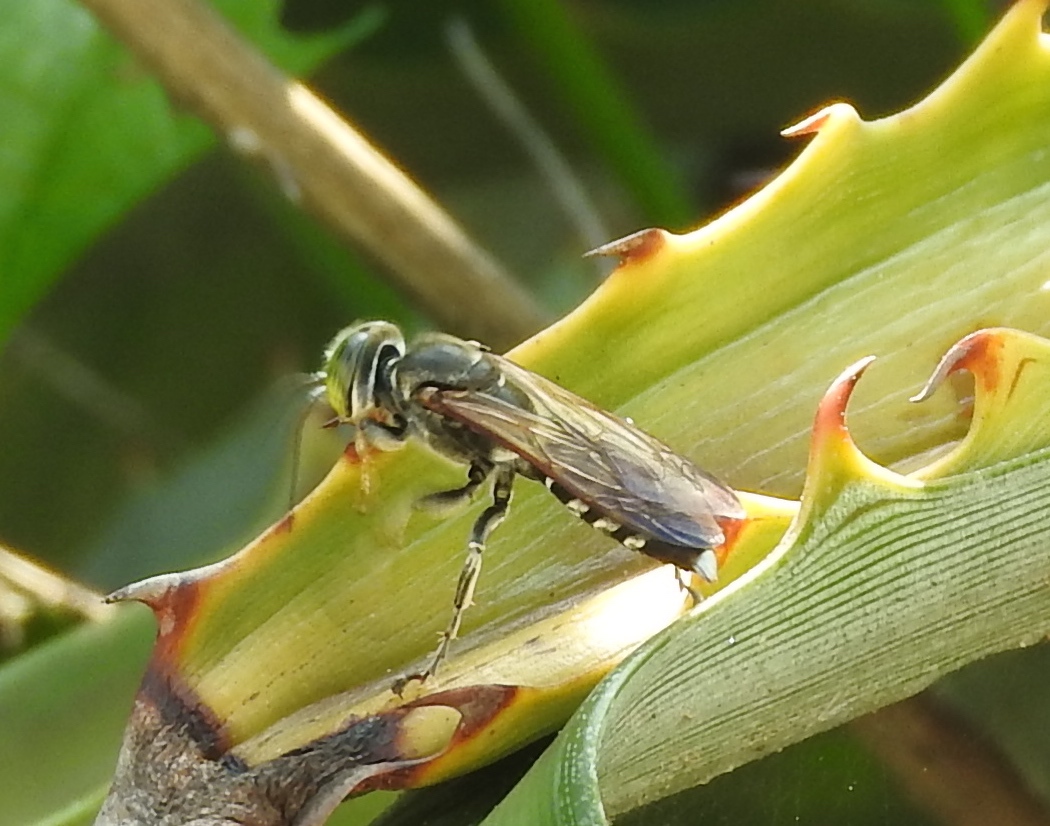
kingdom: Animalia
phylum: Arthropoda
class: Insecta
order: Hymenoptera
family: Crabronidae
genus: Tachytes
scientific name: Tachytes
